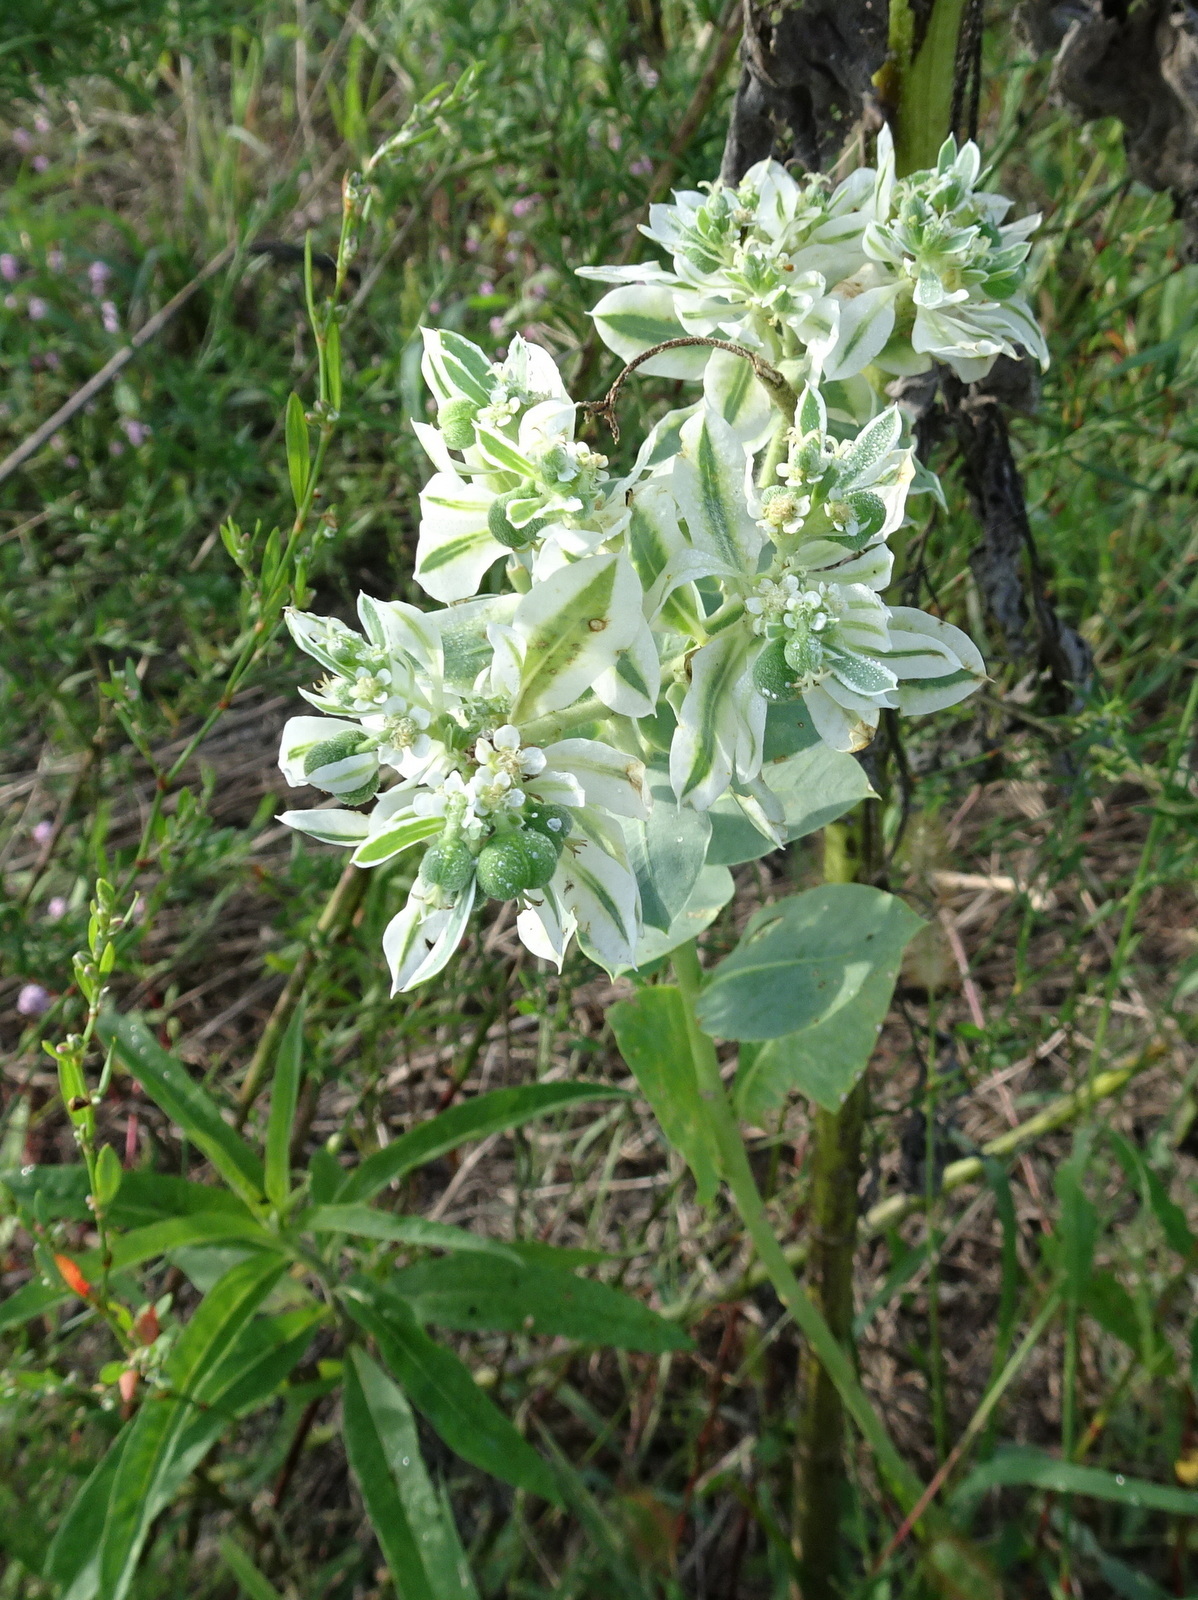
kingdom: Plantae
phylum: Tracheophyta
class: Magnoliopsida
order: Malpighiales
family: Euphorbiaceae
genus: Euphorbia
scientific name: Euphorbia marginata
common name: Ghostweed
